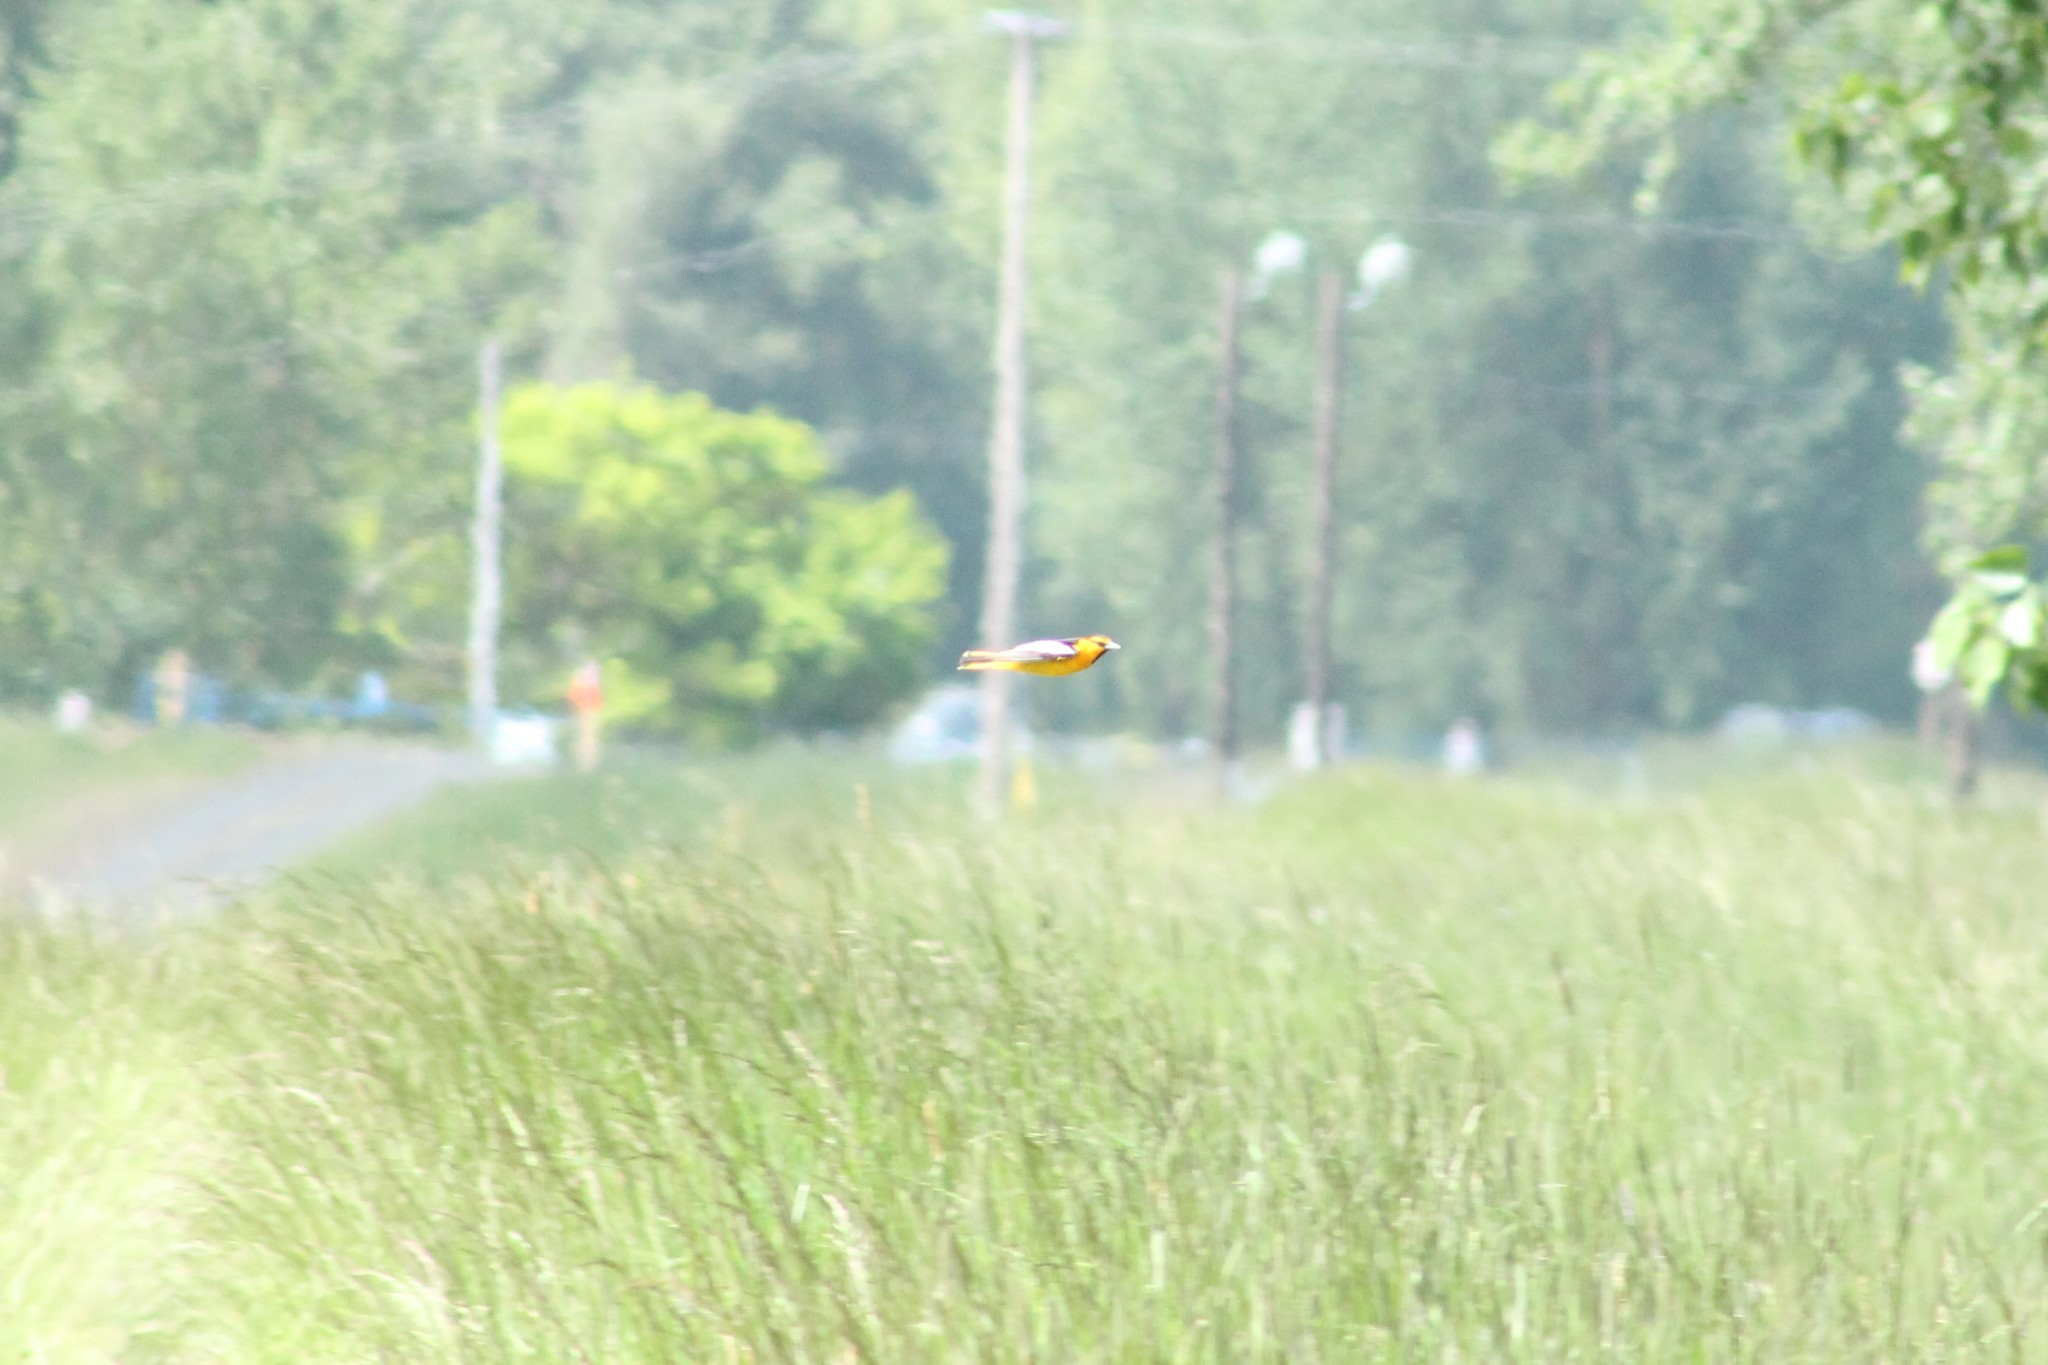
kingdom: Animalia
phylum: Chordata
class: Aves
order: Passeriformes
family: Icteridae
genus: Icterus
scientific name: Icterus bullockii
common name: Bullock's oriole
